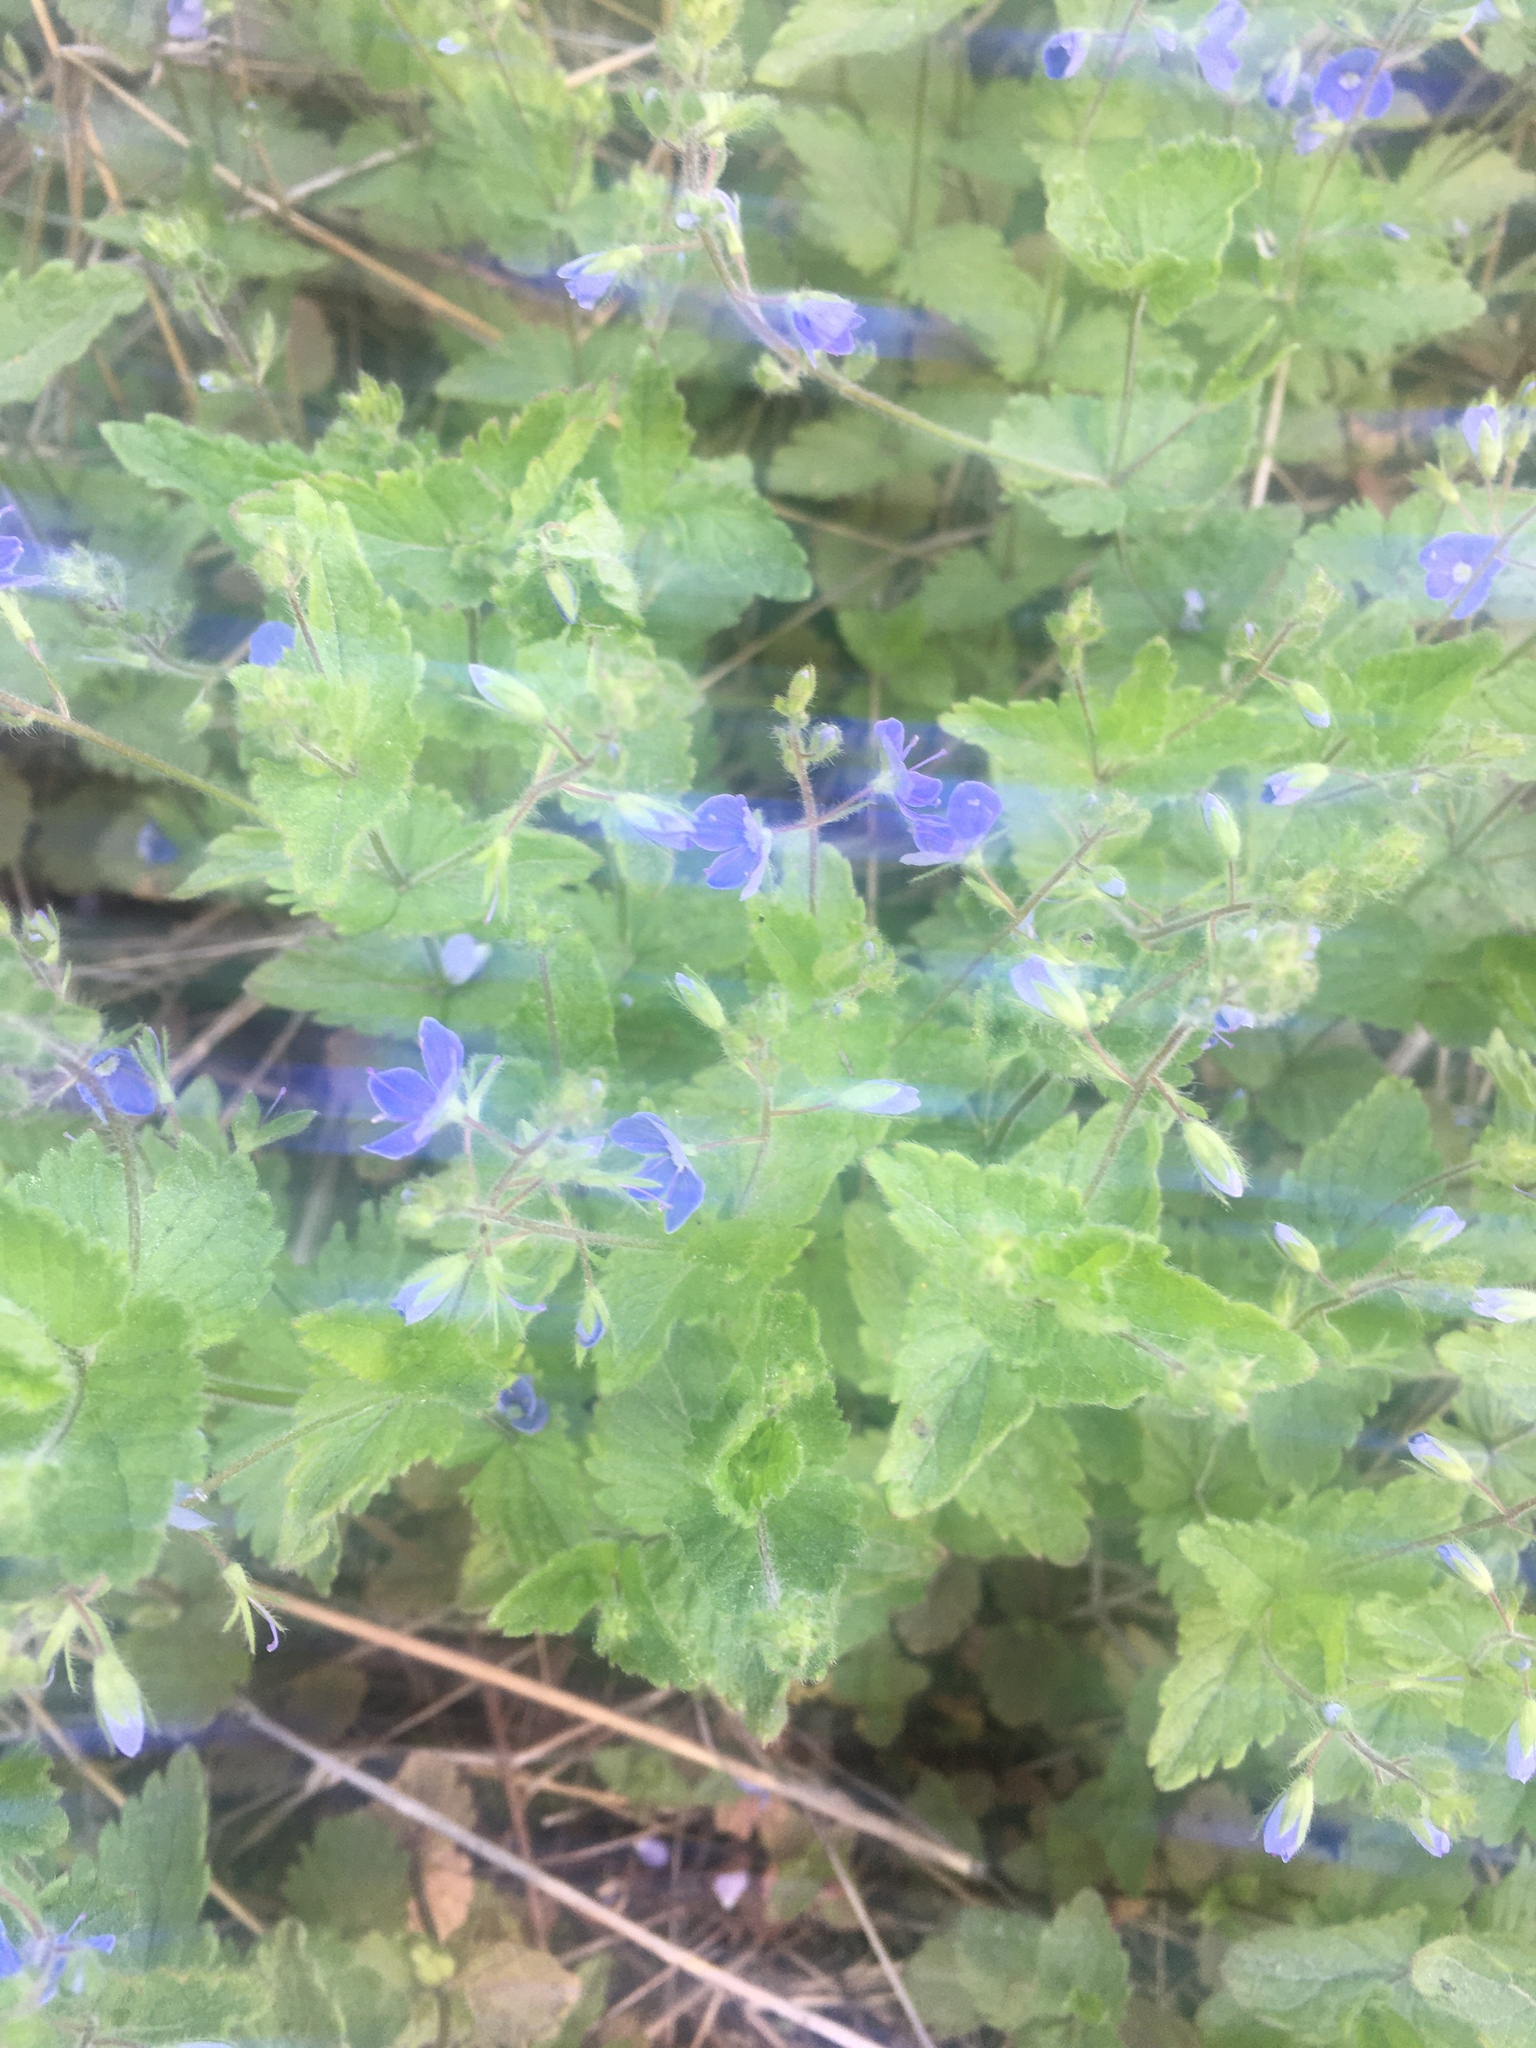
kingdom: Plantae
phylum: Tracheophyta
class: Magnoliopsida
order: Lamiales
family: Plantaginaceae
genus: Veronica
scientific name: Veronica chamaedrys
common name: Germander speedwell
